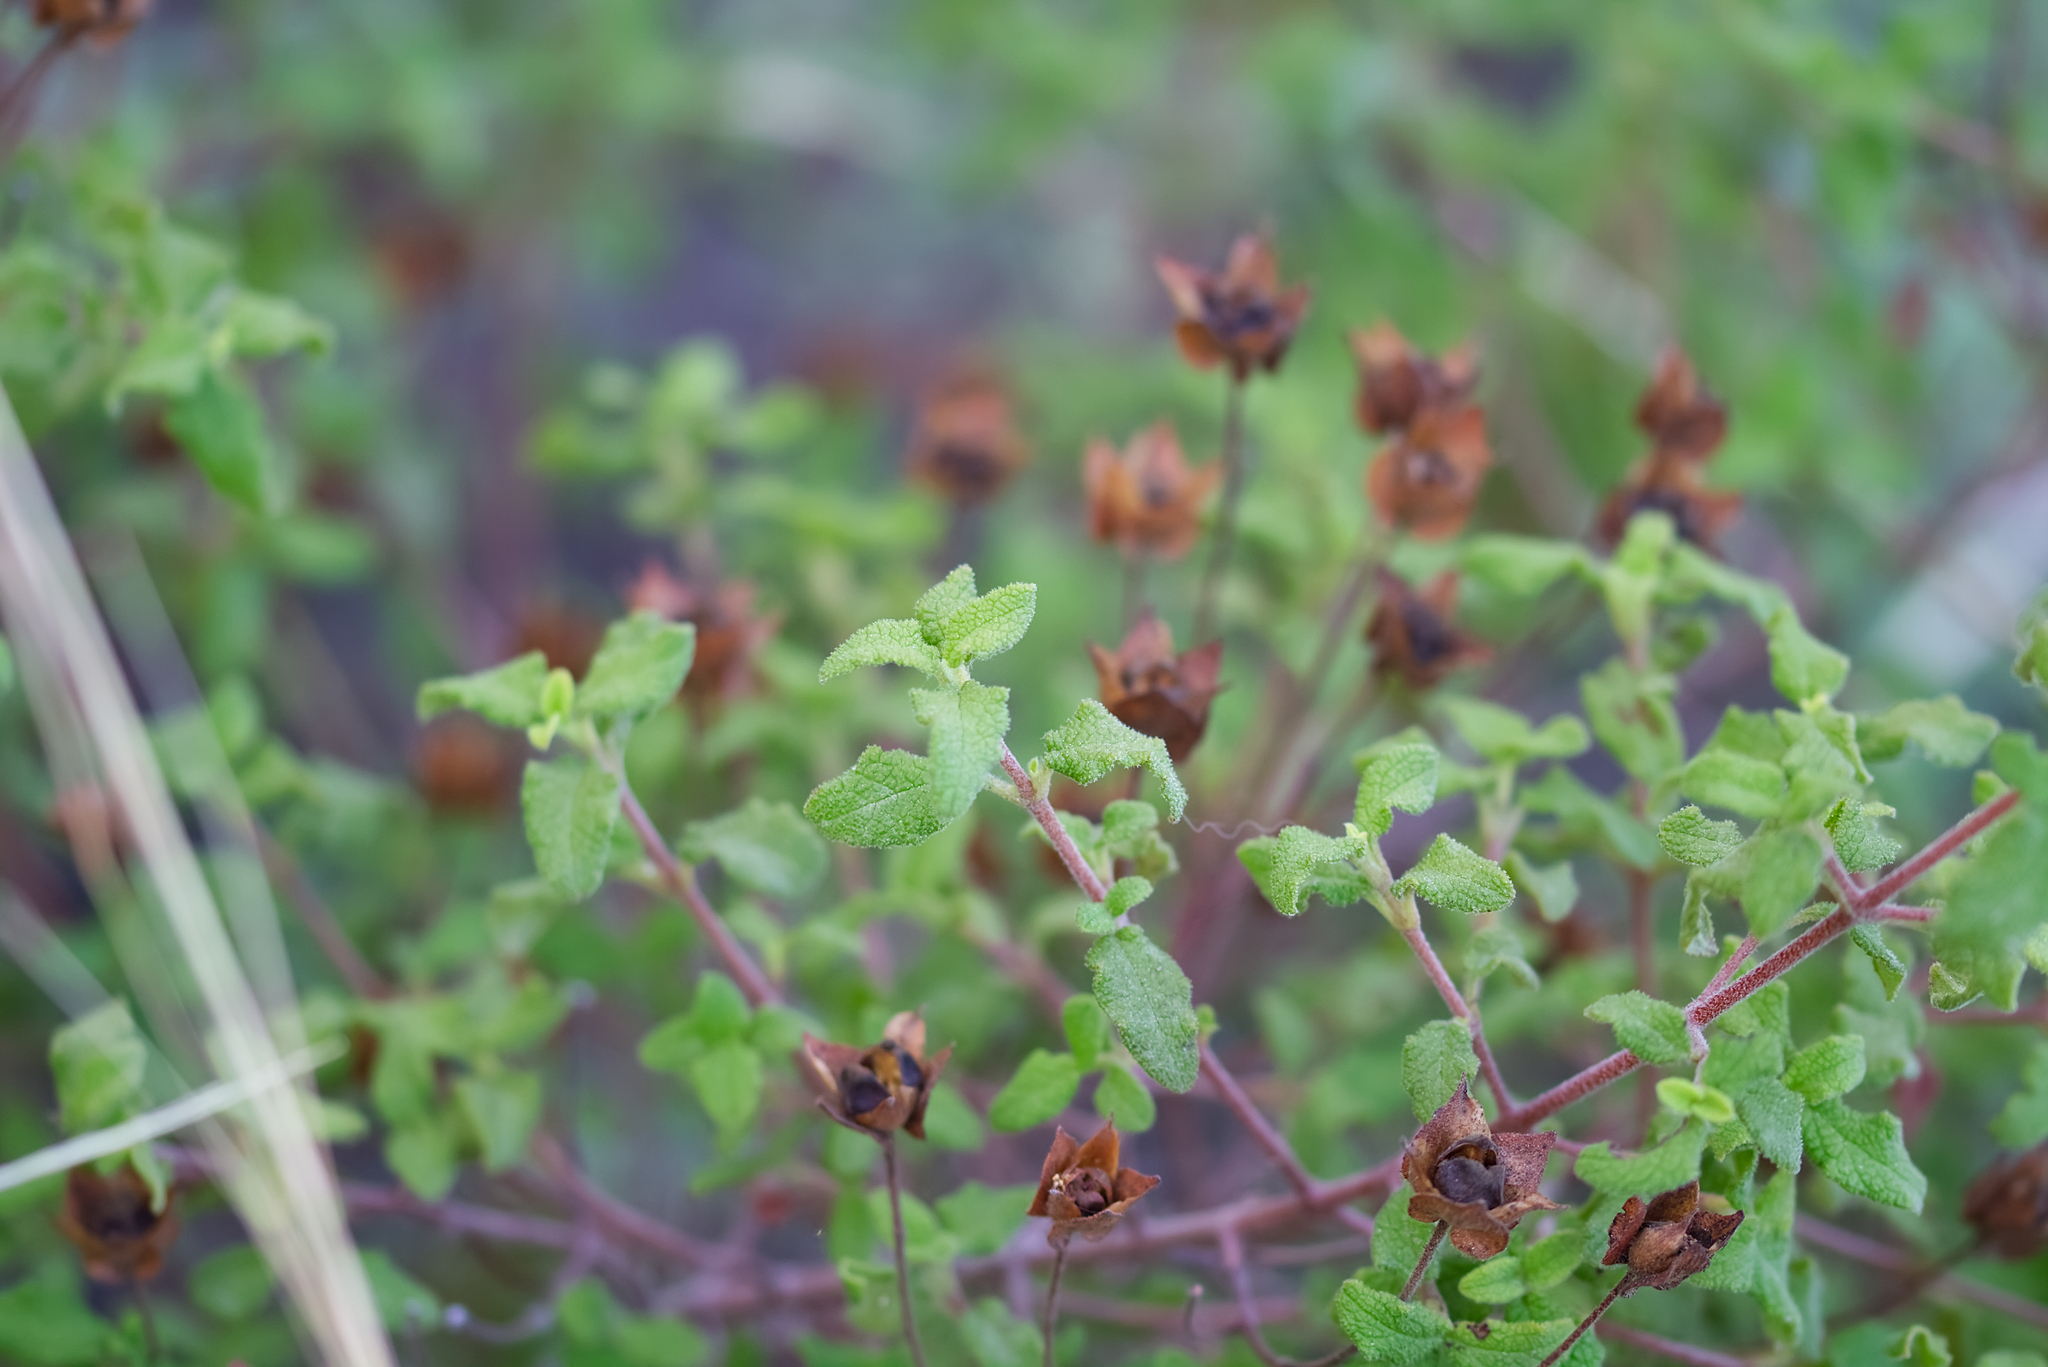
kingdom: Plantae
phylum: Tracheophyta
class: Magnoliopsida
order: Malvales
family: Cistaceae
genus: Cistus
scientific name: Cistus salviifolius
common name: Salvia cistus
